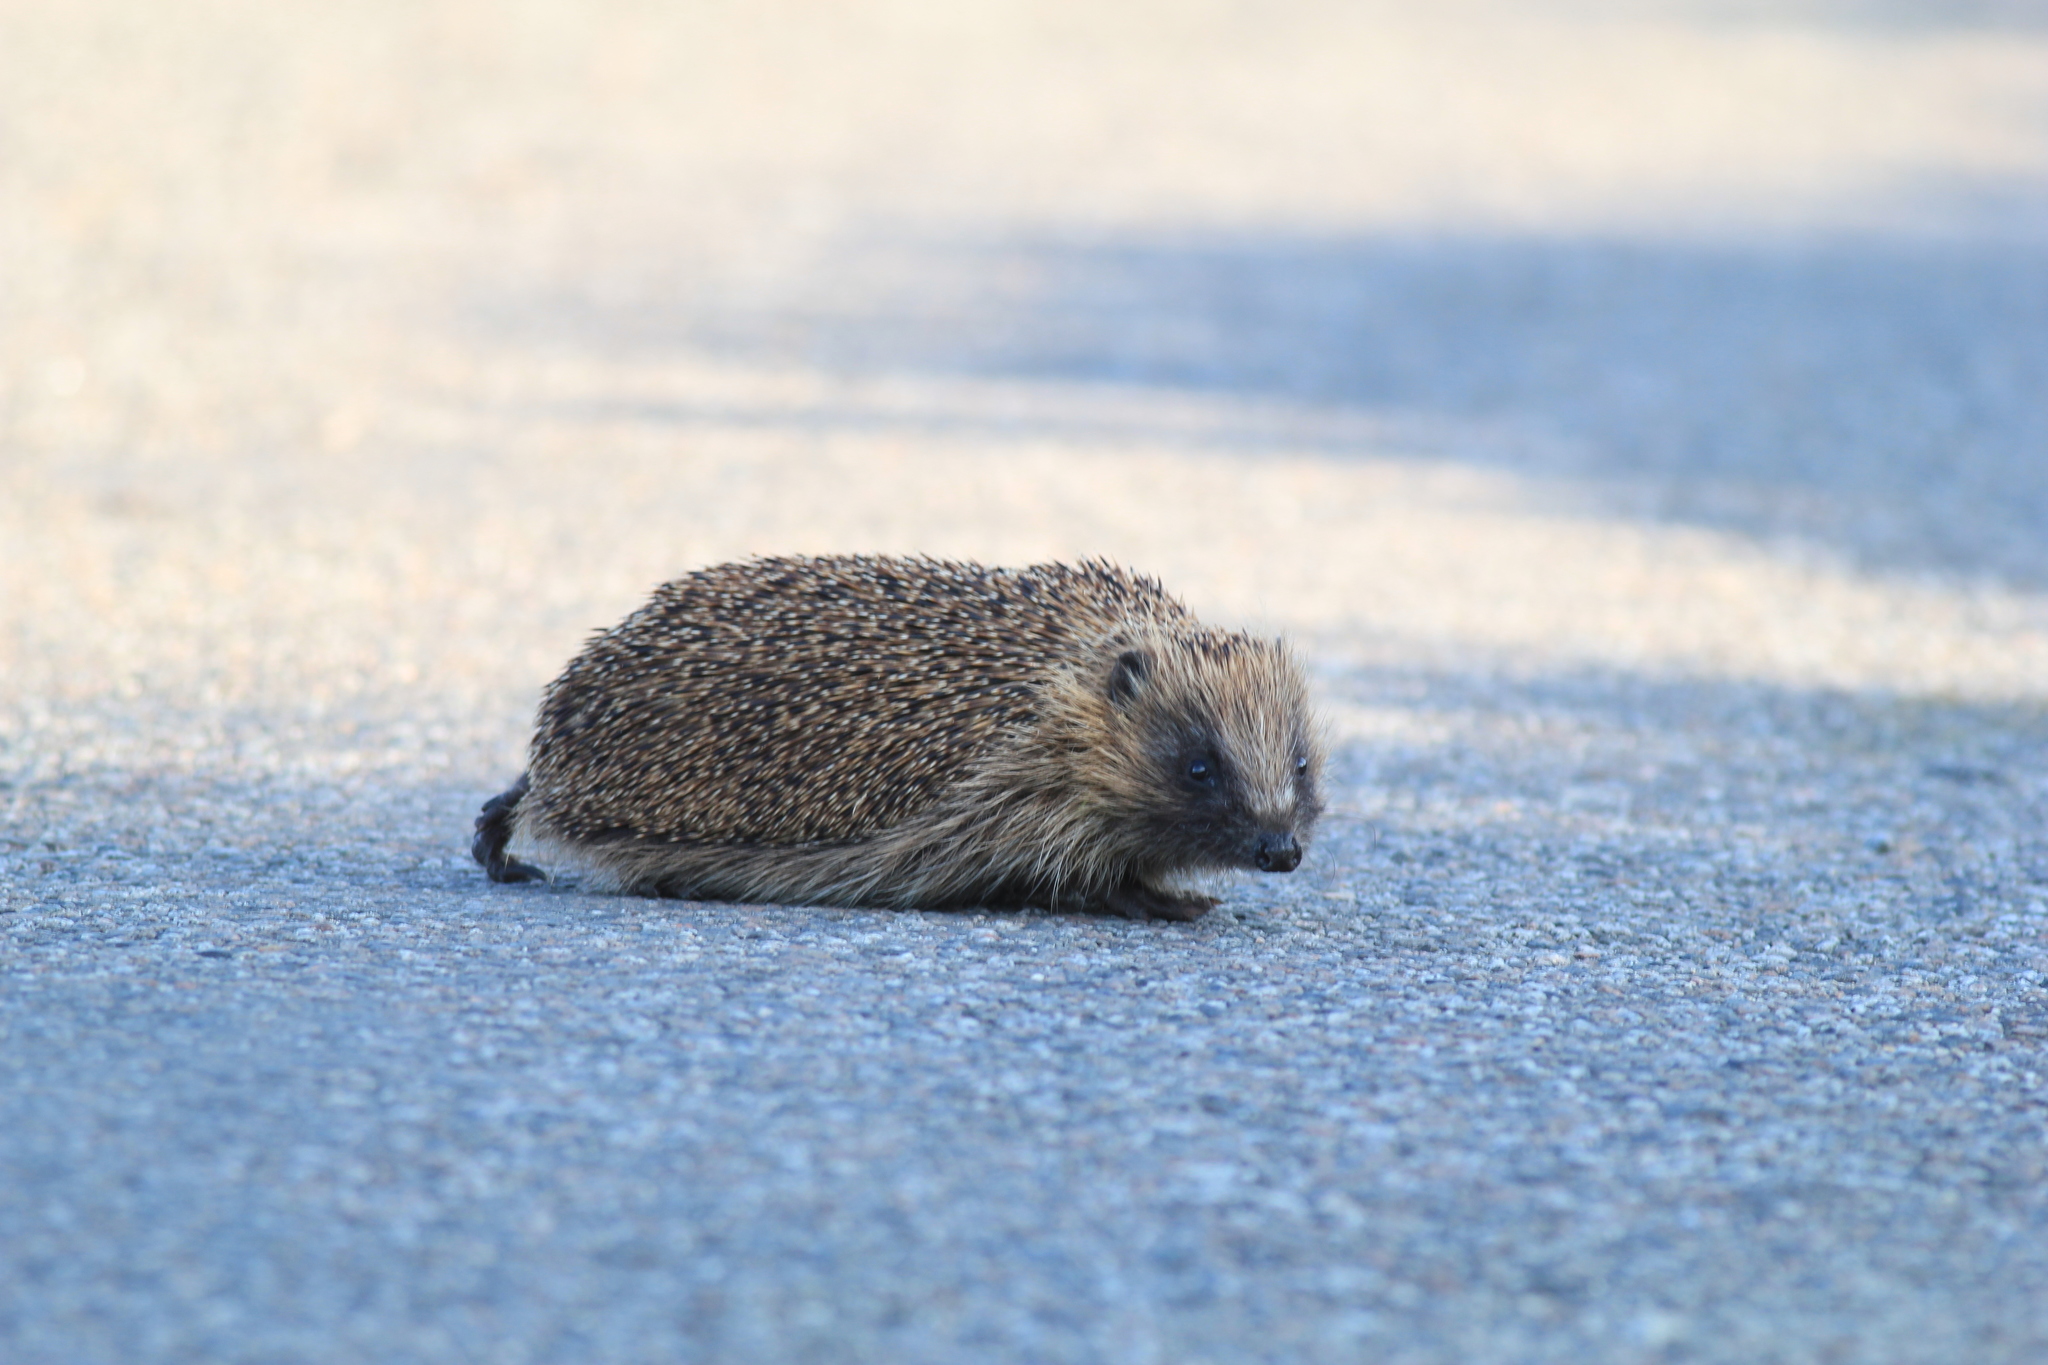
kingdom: Animalia
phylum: Chordata
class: Mammalia
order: Erinaceomorpha
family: Erinaceidae
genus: Erinaceus
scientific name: Erinaceus europaeus
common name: West european hedgehog
